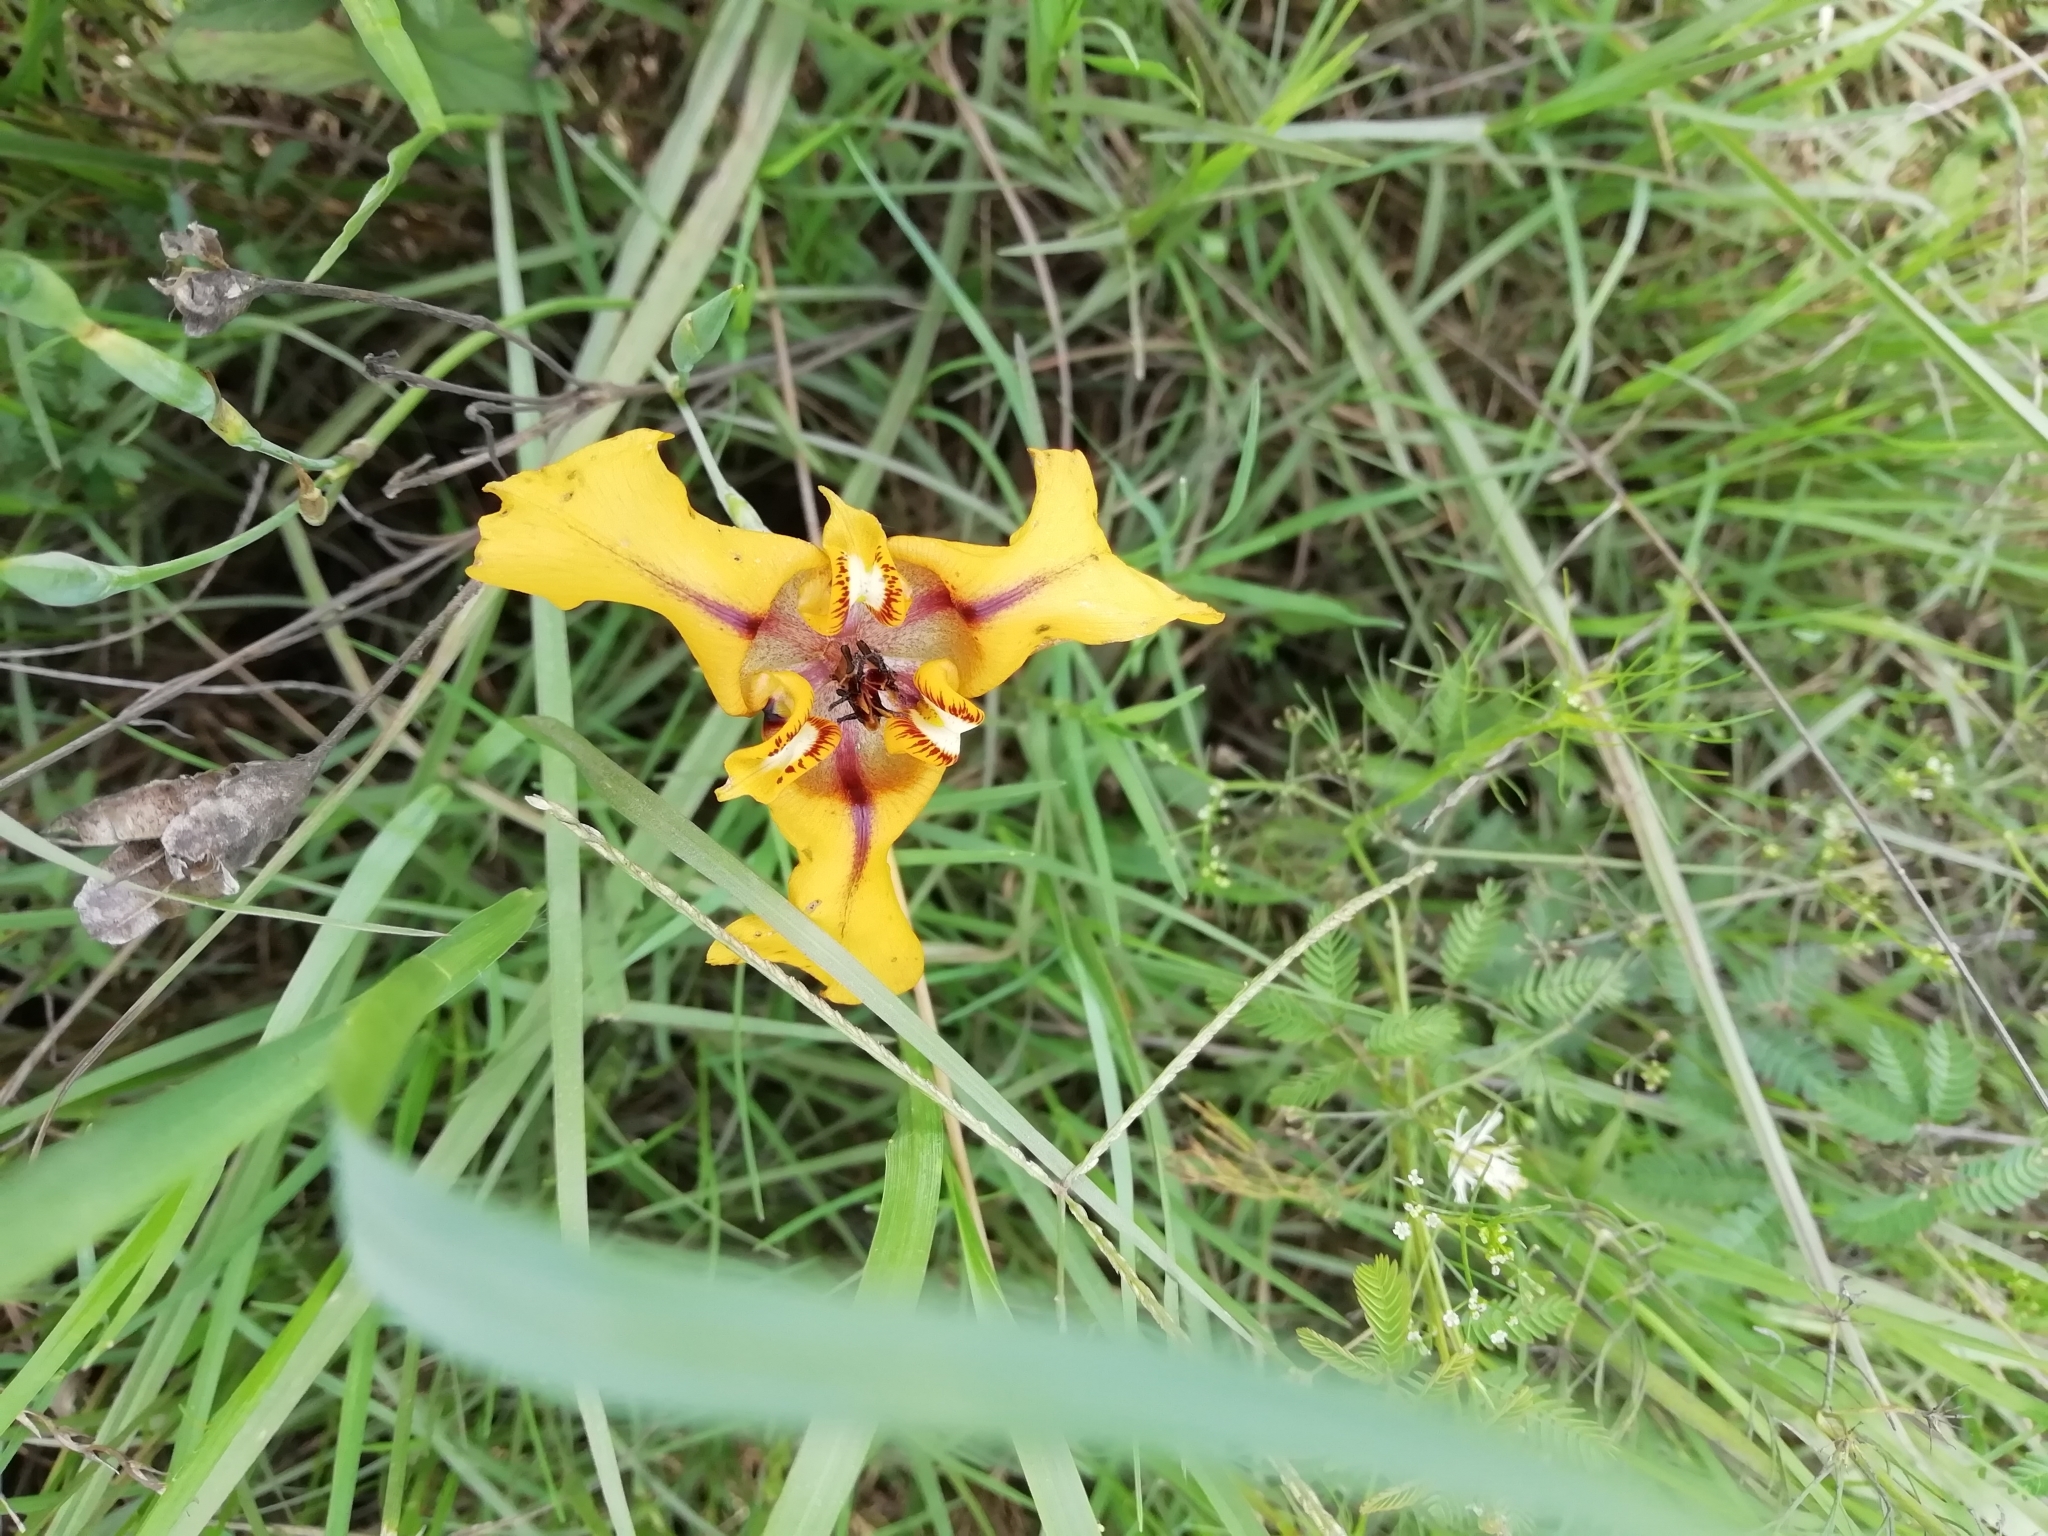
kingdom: Plantae
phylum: Tracheophyta
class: Liliopsida
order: Asparagales
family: Iridaceae
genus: Cypella
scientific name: Cypella herbertii
